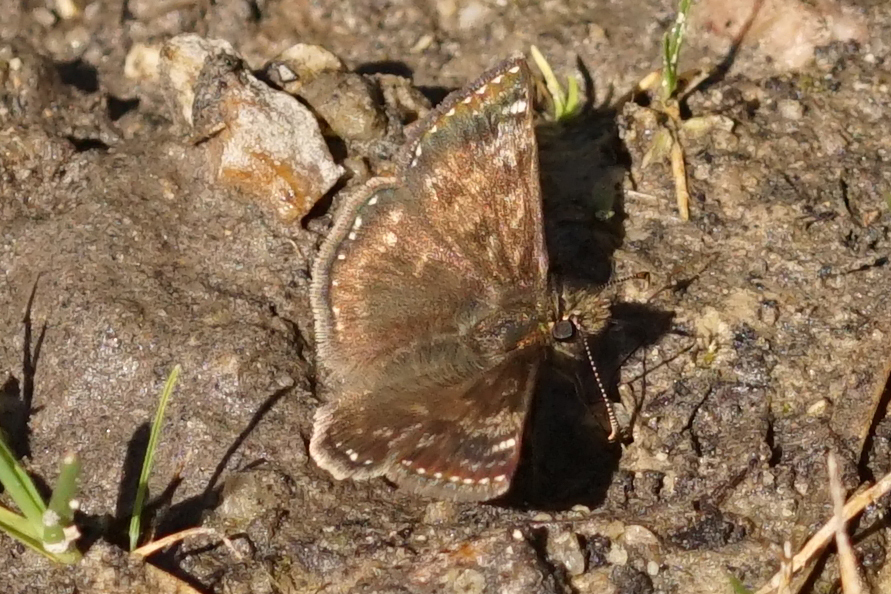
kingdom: Animalia
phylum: Arthropoda
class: Insecta
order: Lepidoptera
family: Hesperiidae
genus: Erynnis
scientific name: Erynnis tages
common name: Dingy skipper
